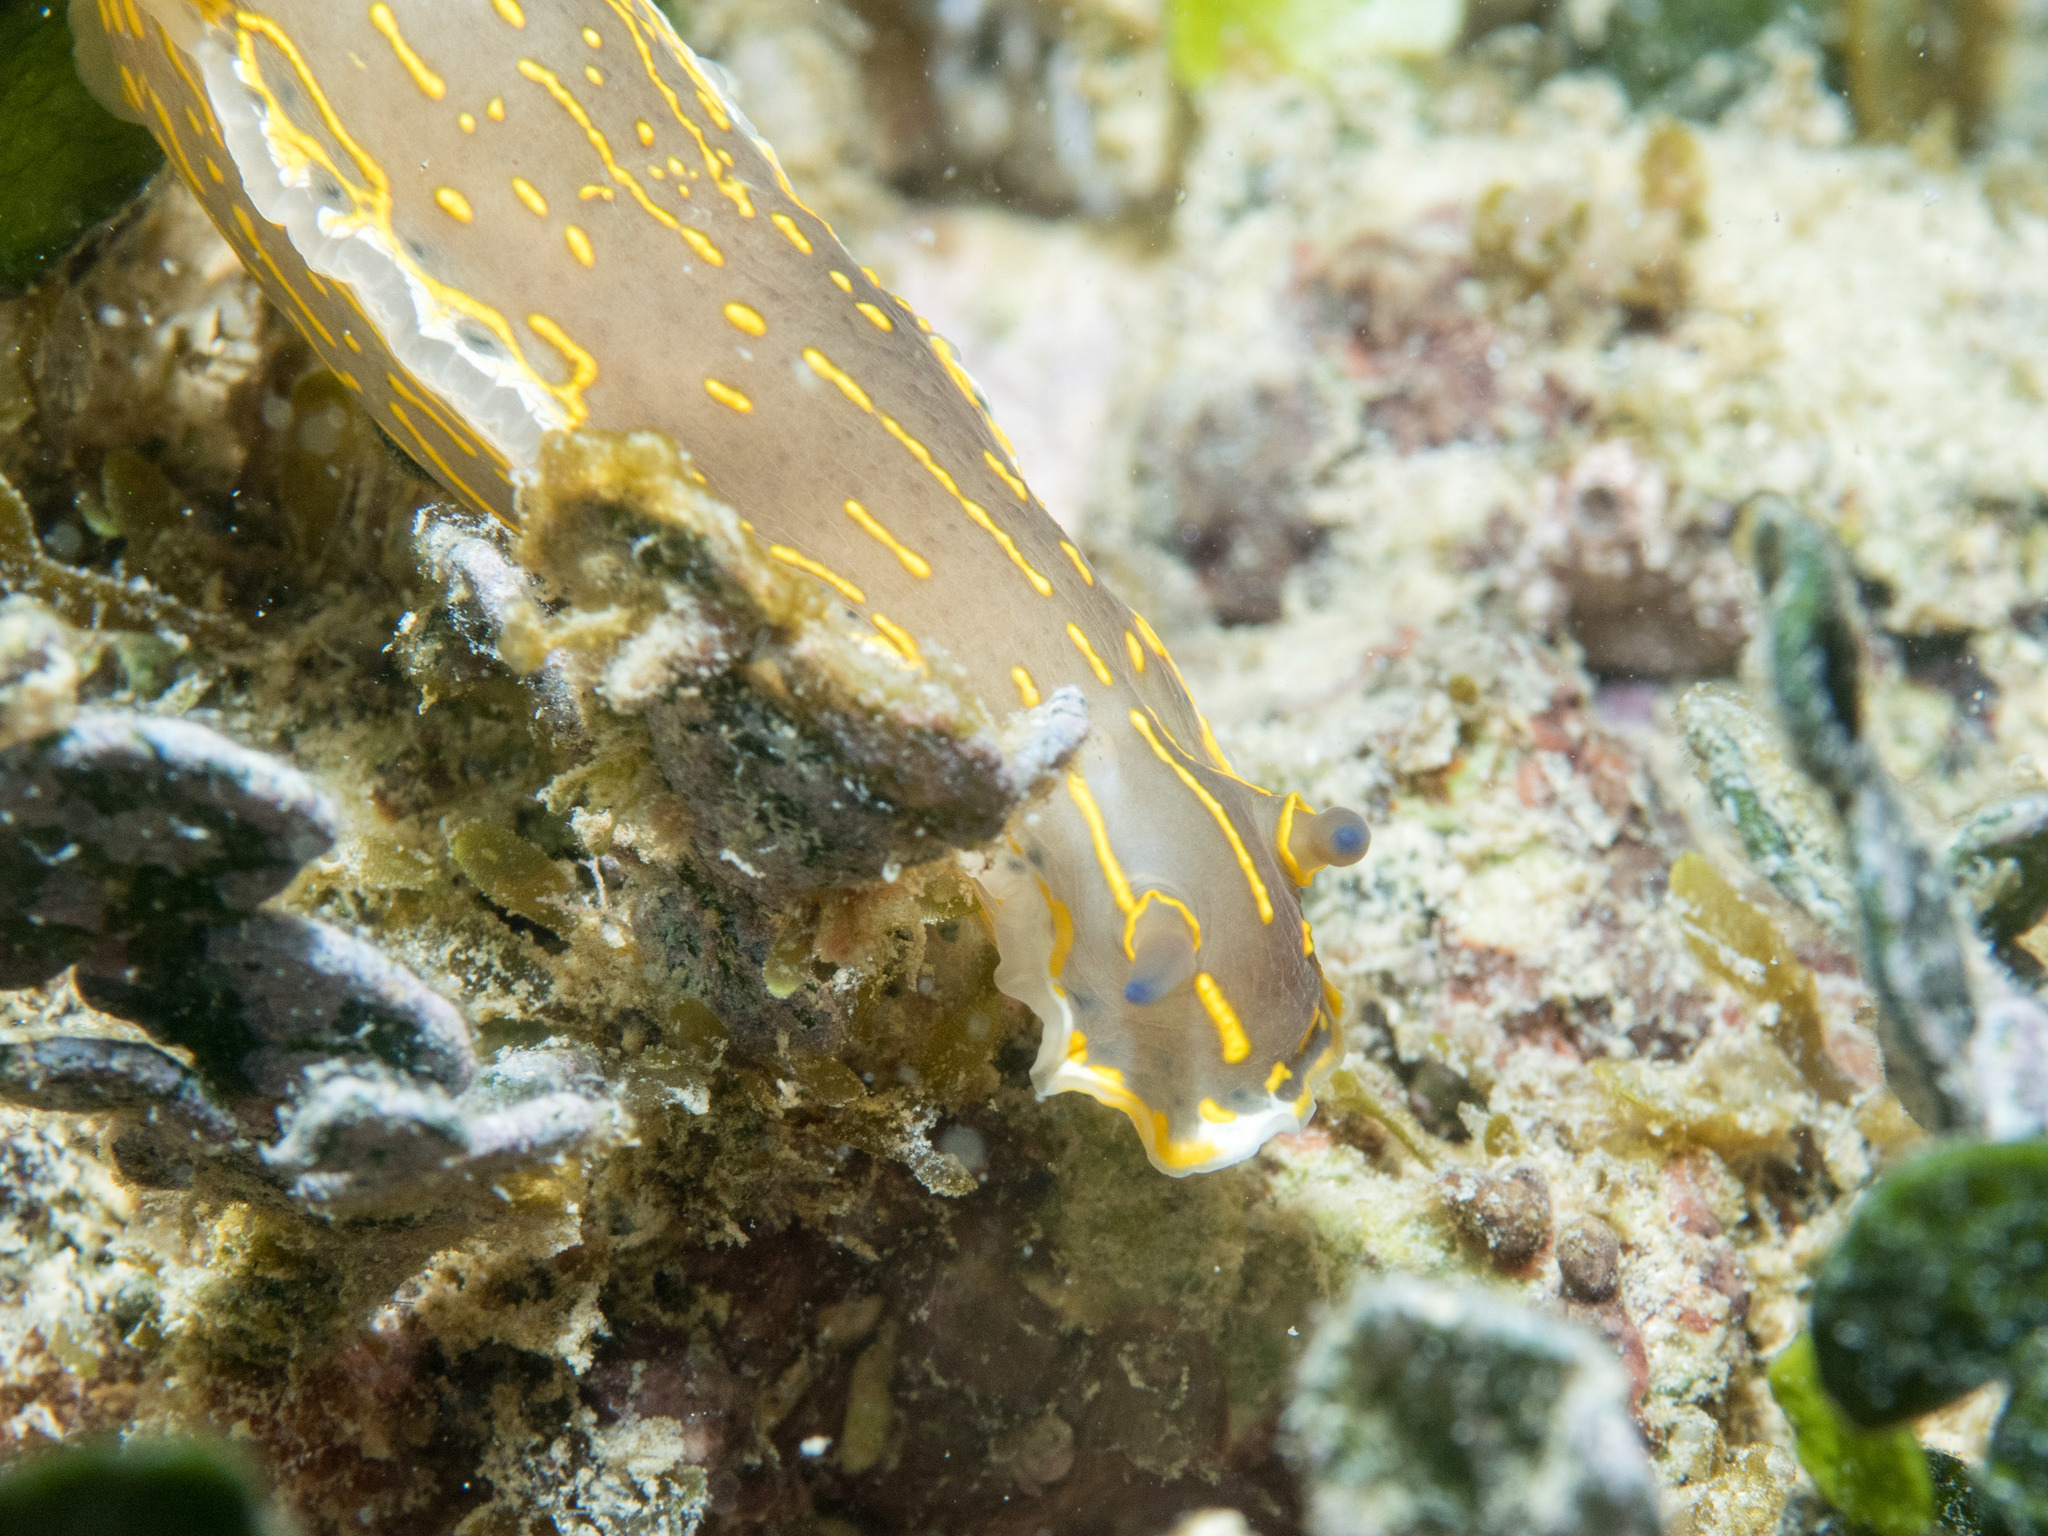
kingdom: Animalia
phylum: Mollusca
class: Gastropoda
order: Nudibranchia
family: Chromodorididae
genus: Felimare
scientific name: Felimare picta
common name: Giant doris
